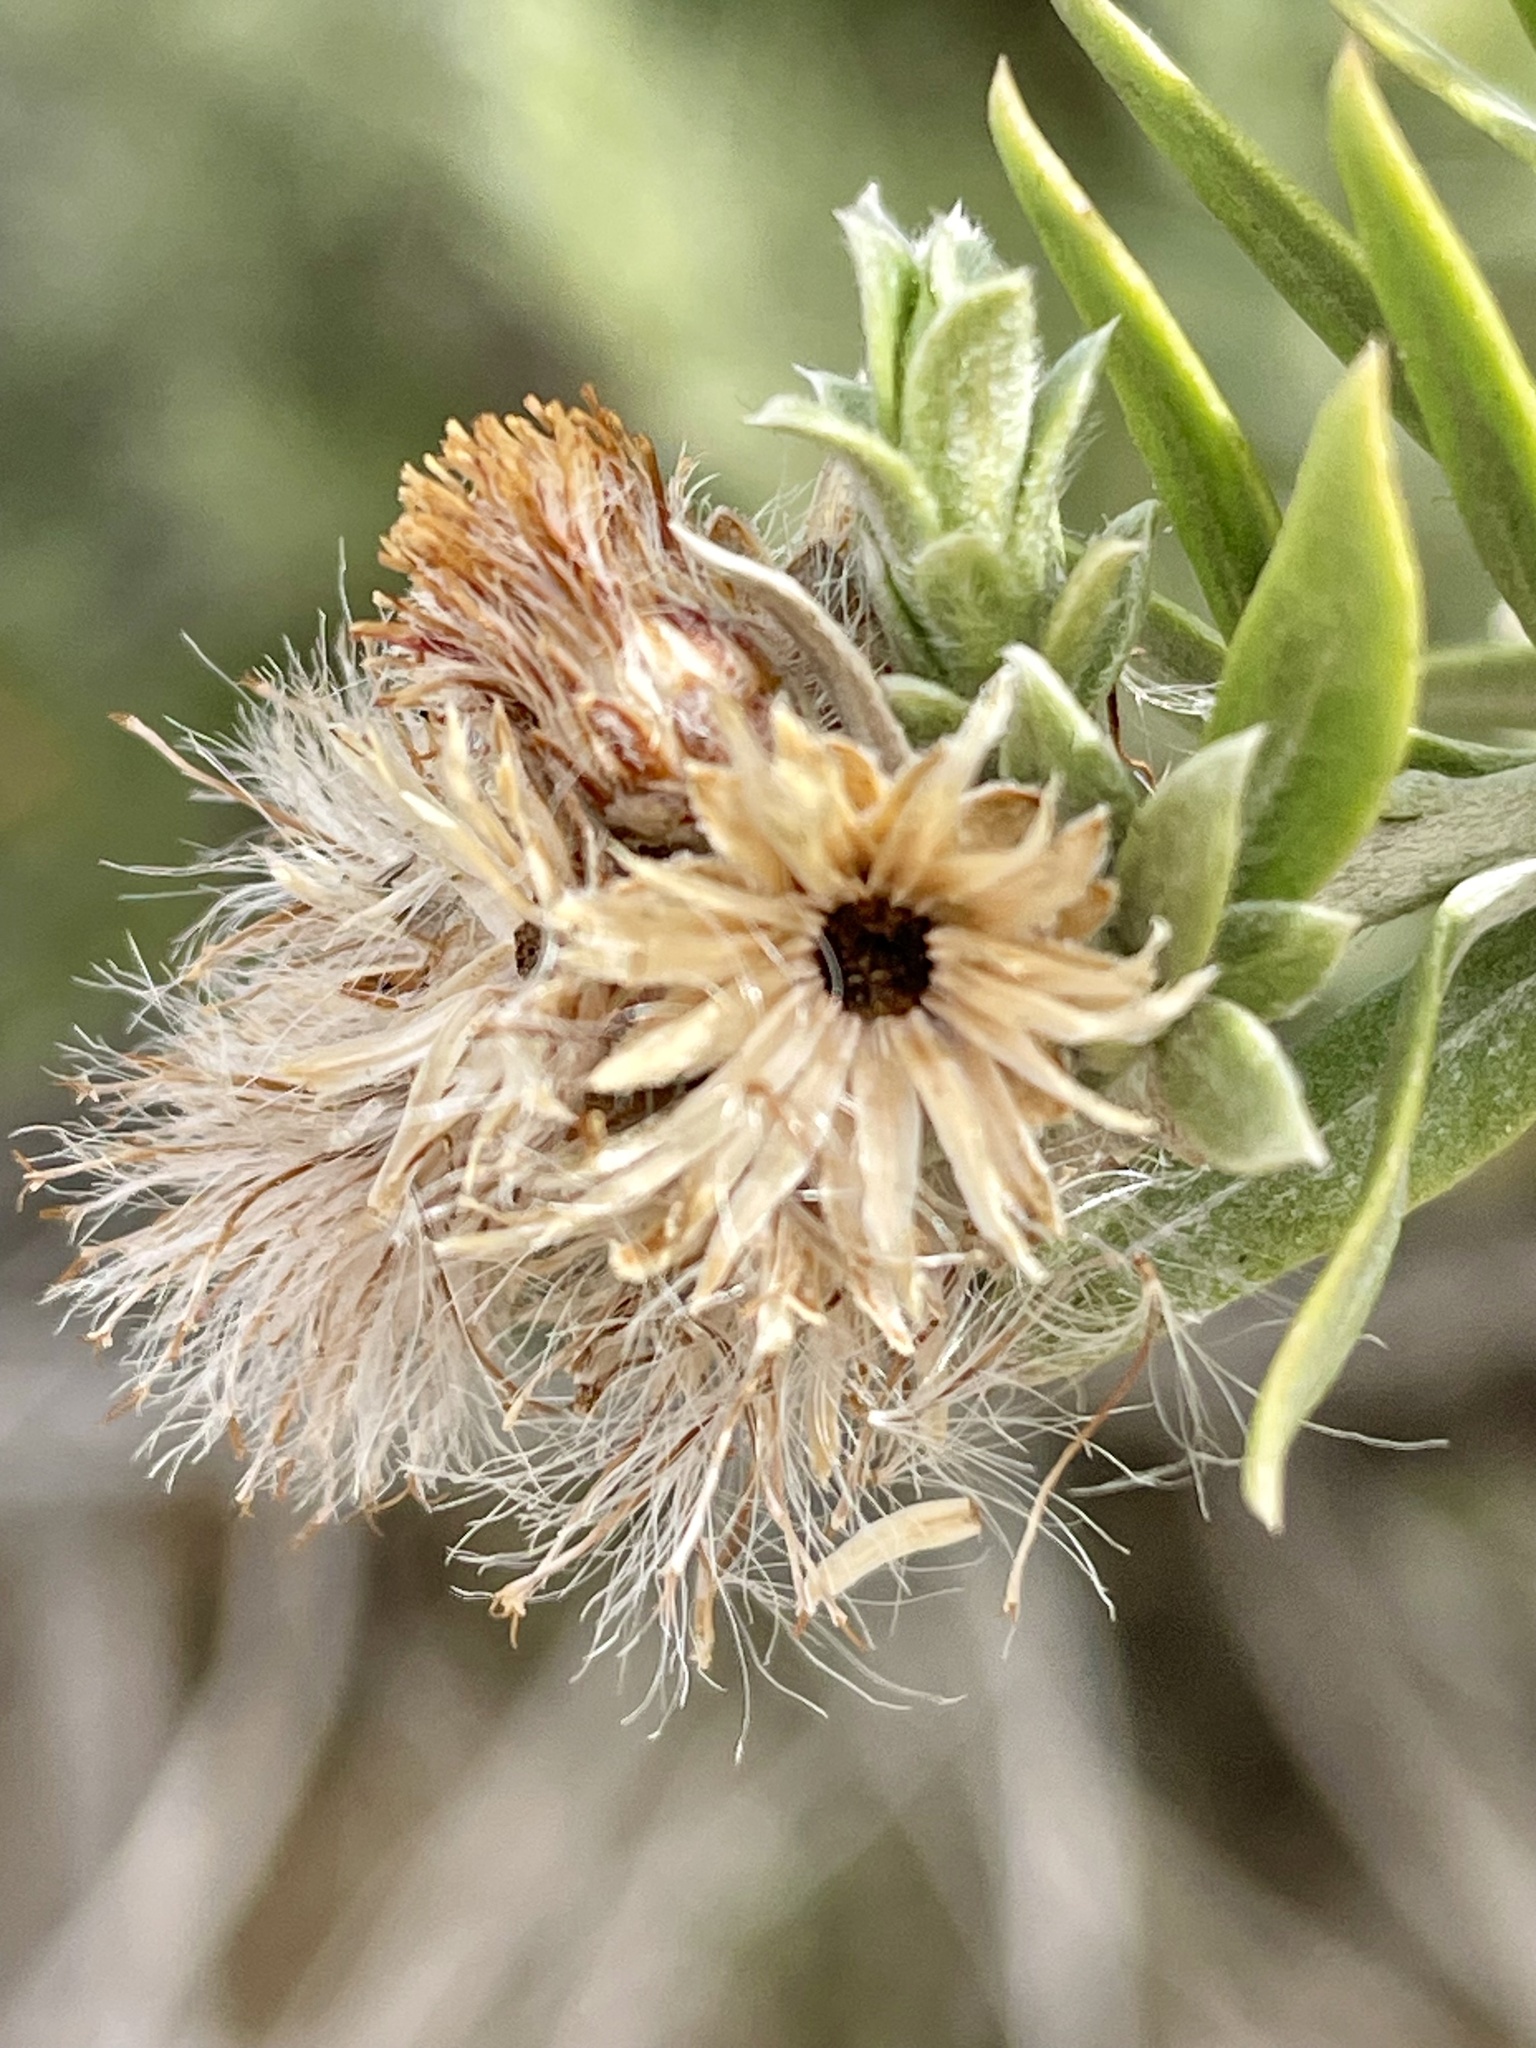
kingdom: Plantae
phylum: Tracheophyta
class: Magnoliopsida
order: Asterales
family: Asteraceae
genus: Pluchea
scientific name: Pluchea sericea
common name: Arrow-weed
